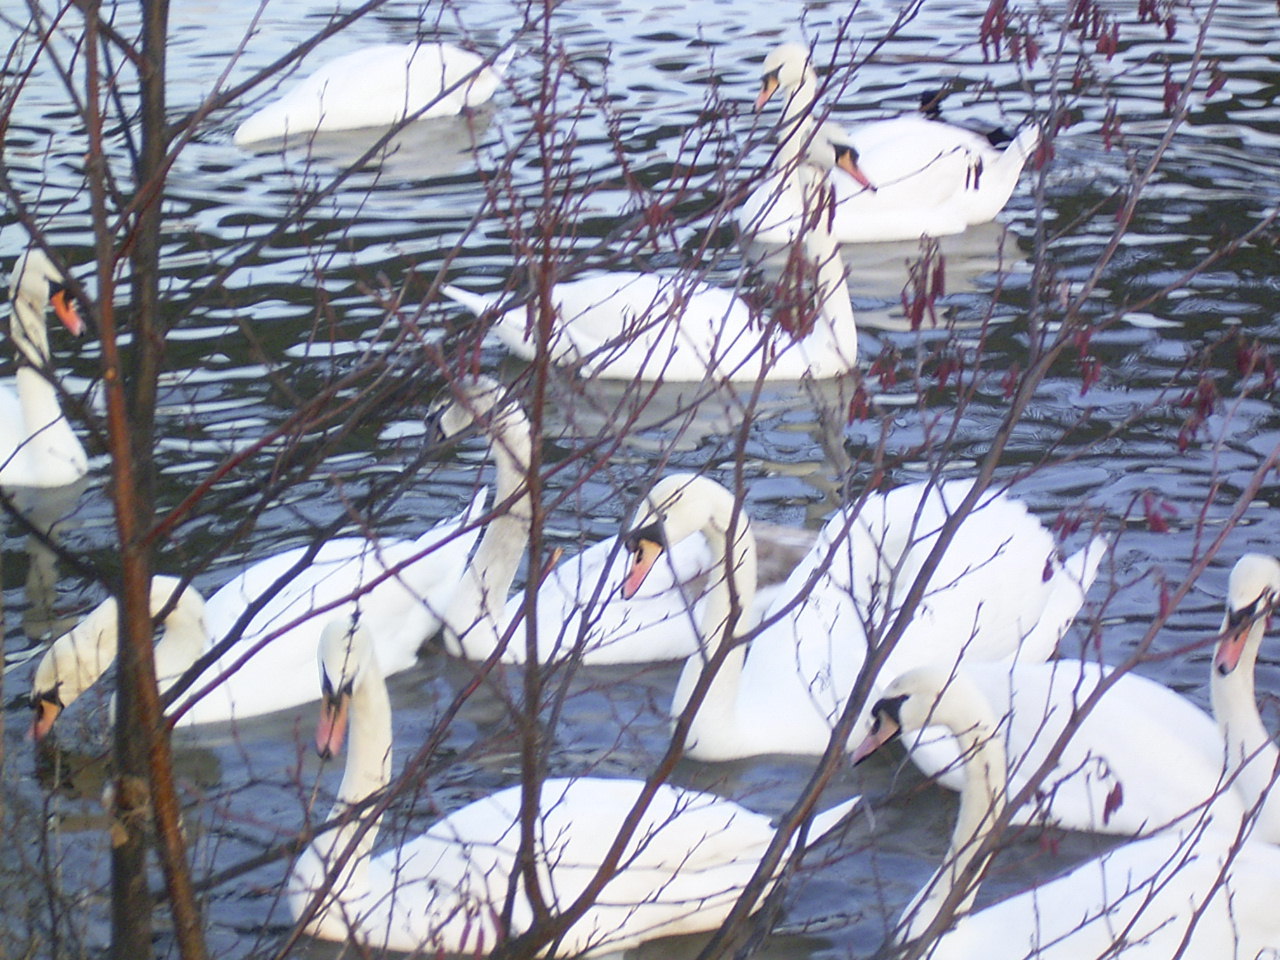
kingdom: Animalia
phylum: Chordata
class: Aves
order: Anseriformes
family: Anatidae
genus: Cygnus
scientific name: Cygnus olor
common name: Mute swan
